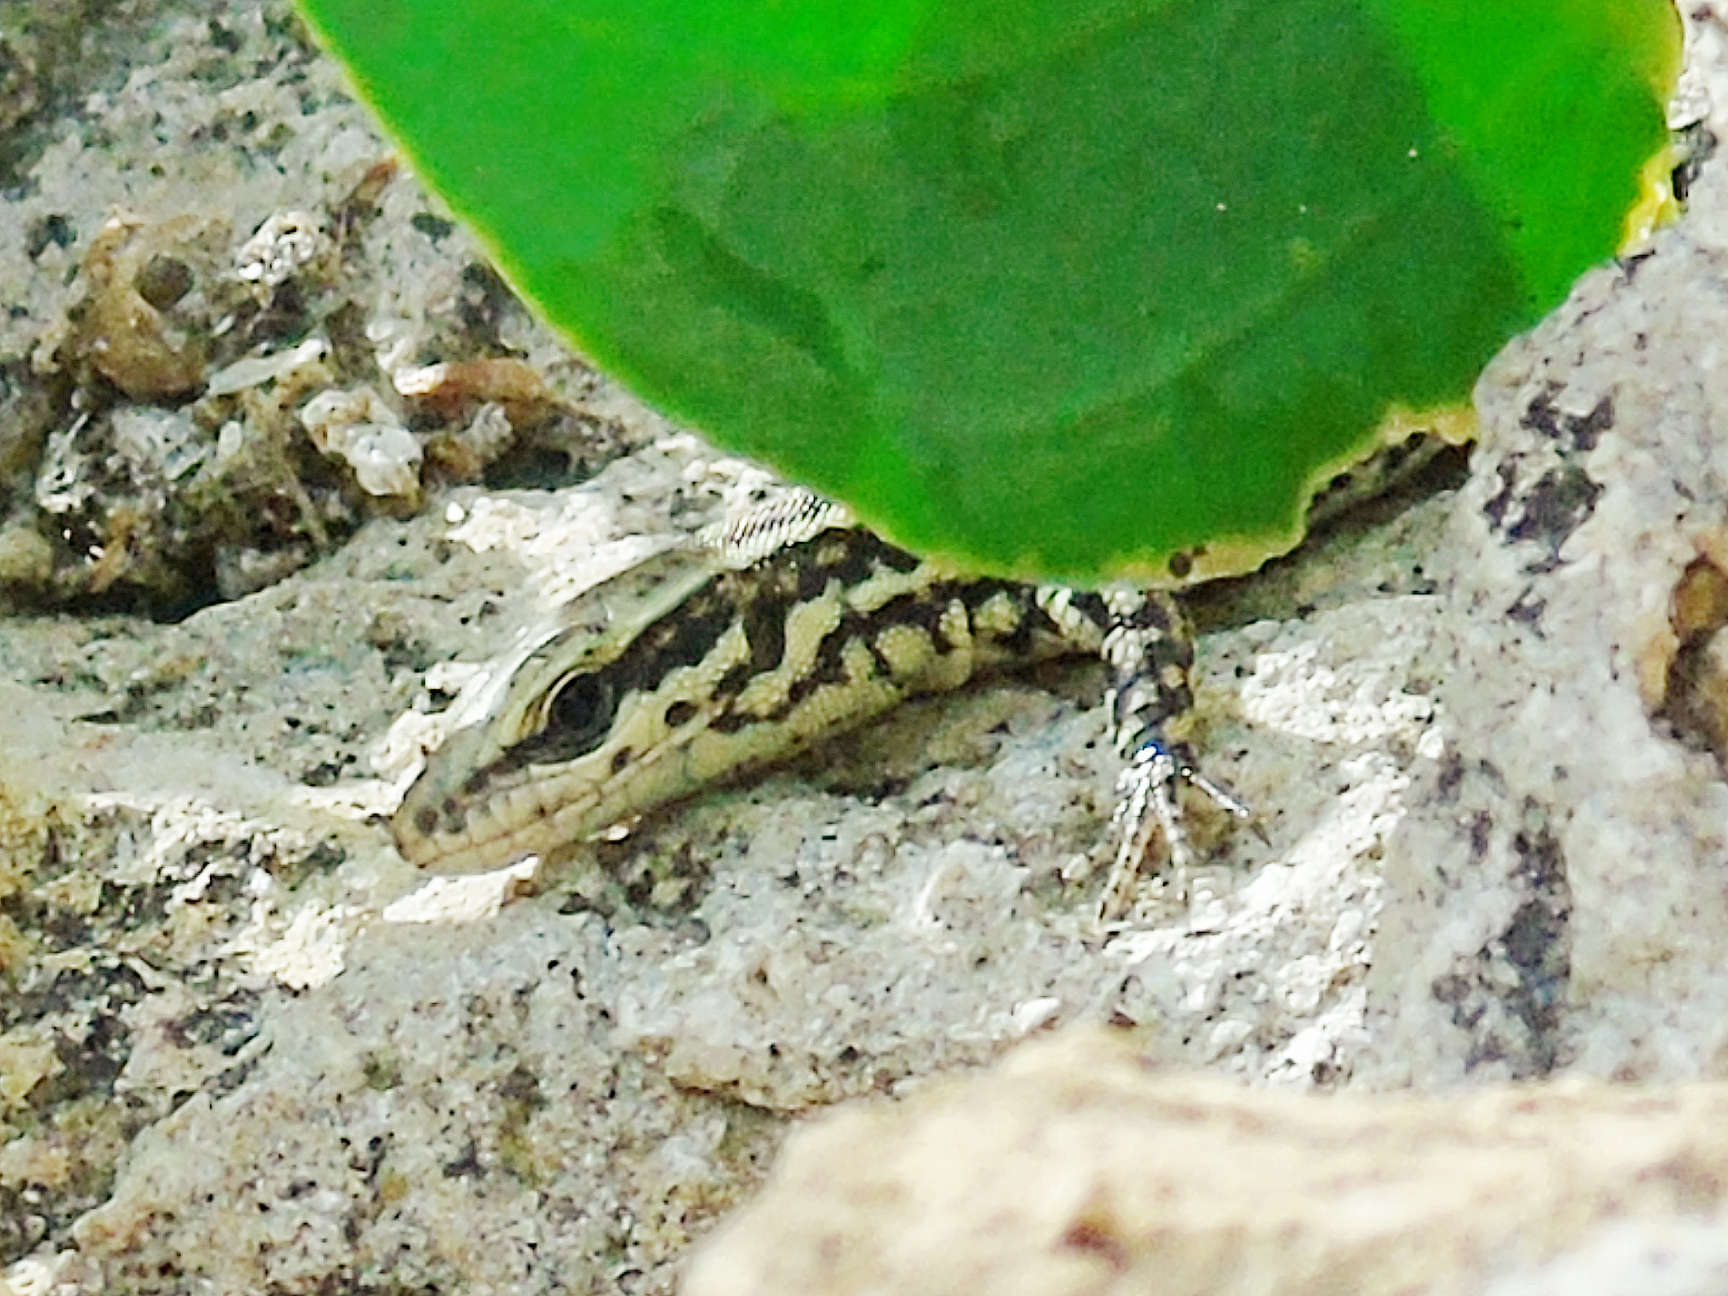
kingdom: Animalia
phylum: Chordata
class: Squamata
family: Lacertidae
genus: Podarcis
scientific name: Podarcis muralis
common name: Common wall lizard
